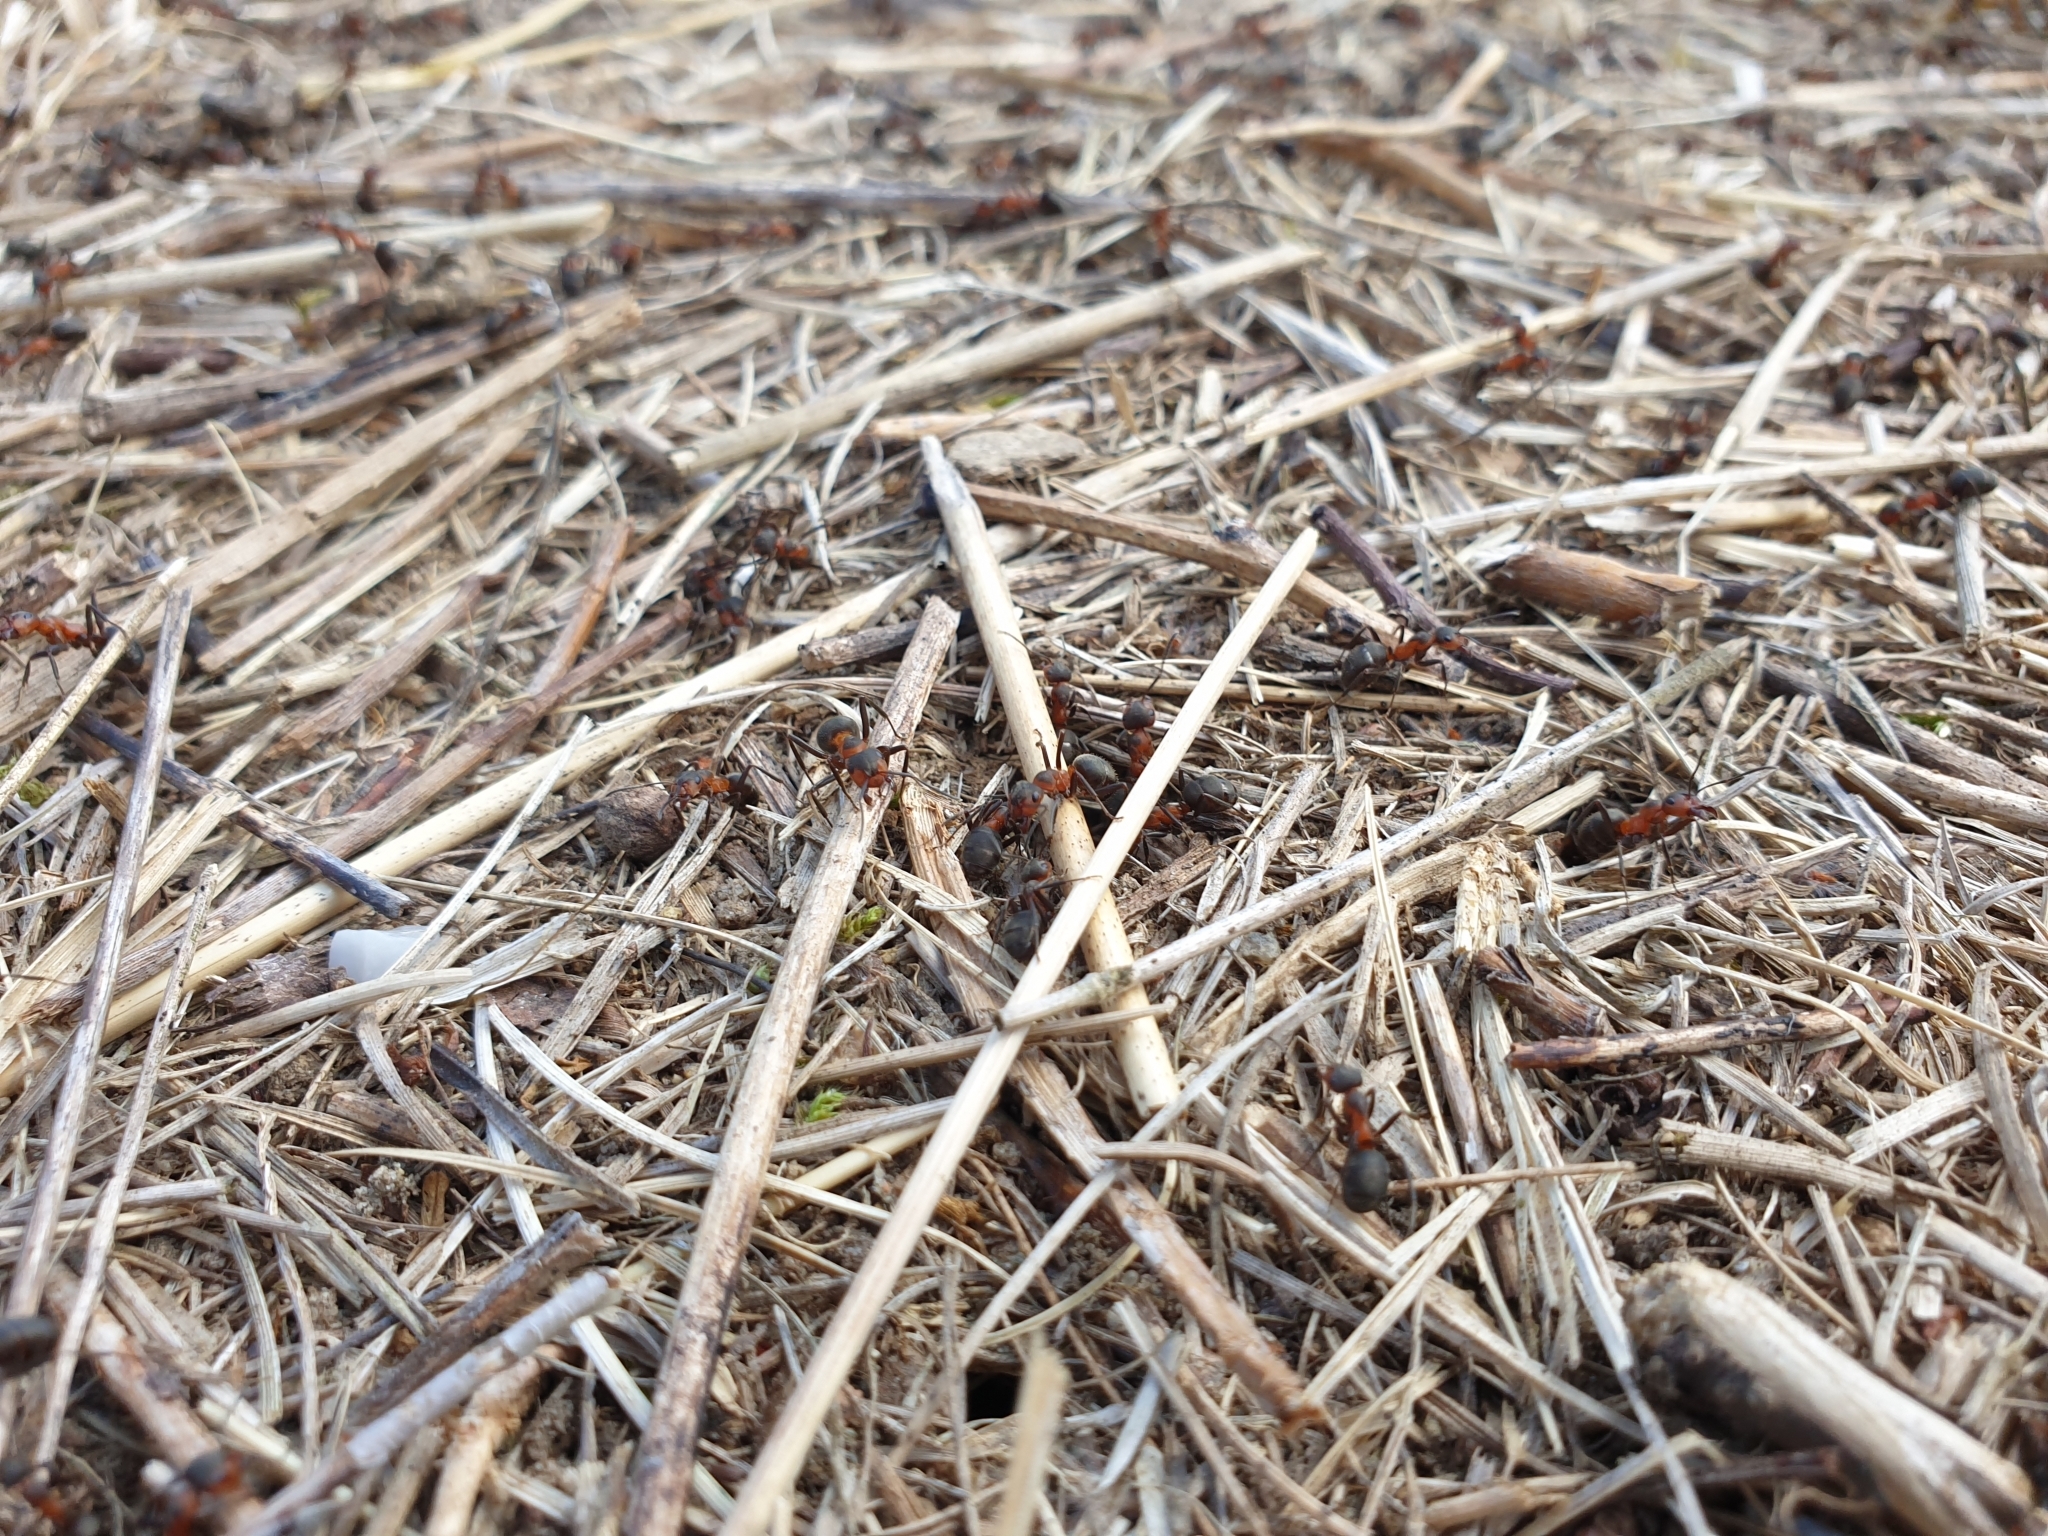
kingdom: Animalia
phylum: Arthropoda
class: Insecta
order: Hymenoptera
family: Formicidae
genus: Formica
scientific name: Formica pratensis
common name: European red wood ant
